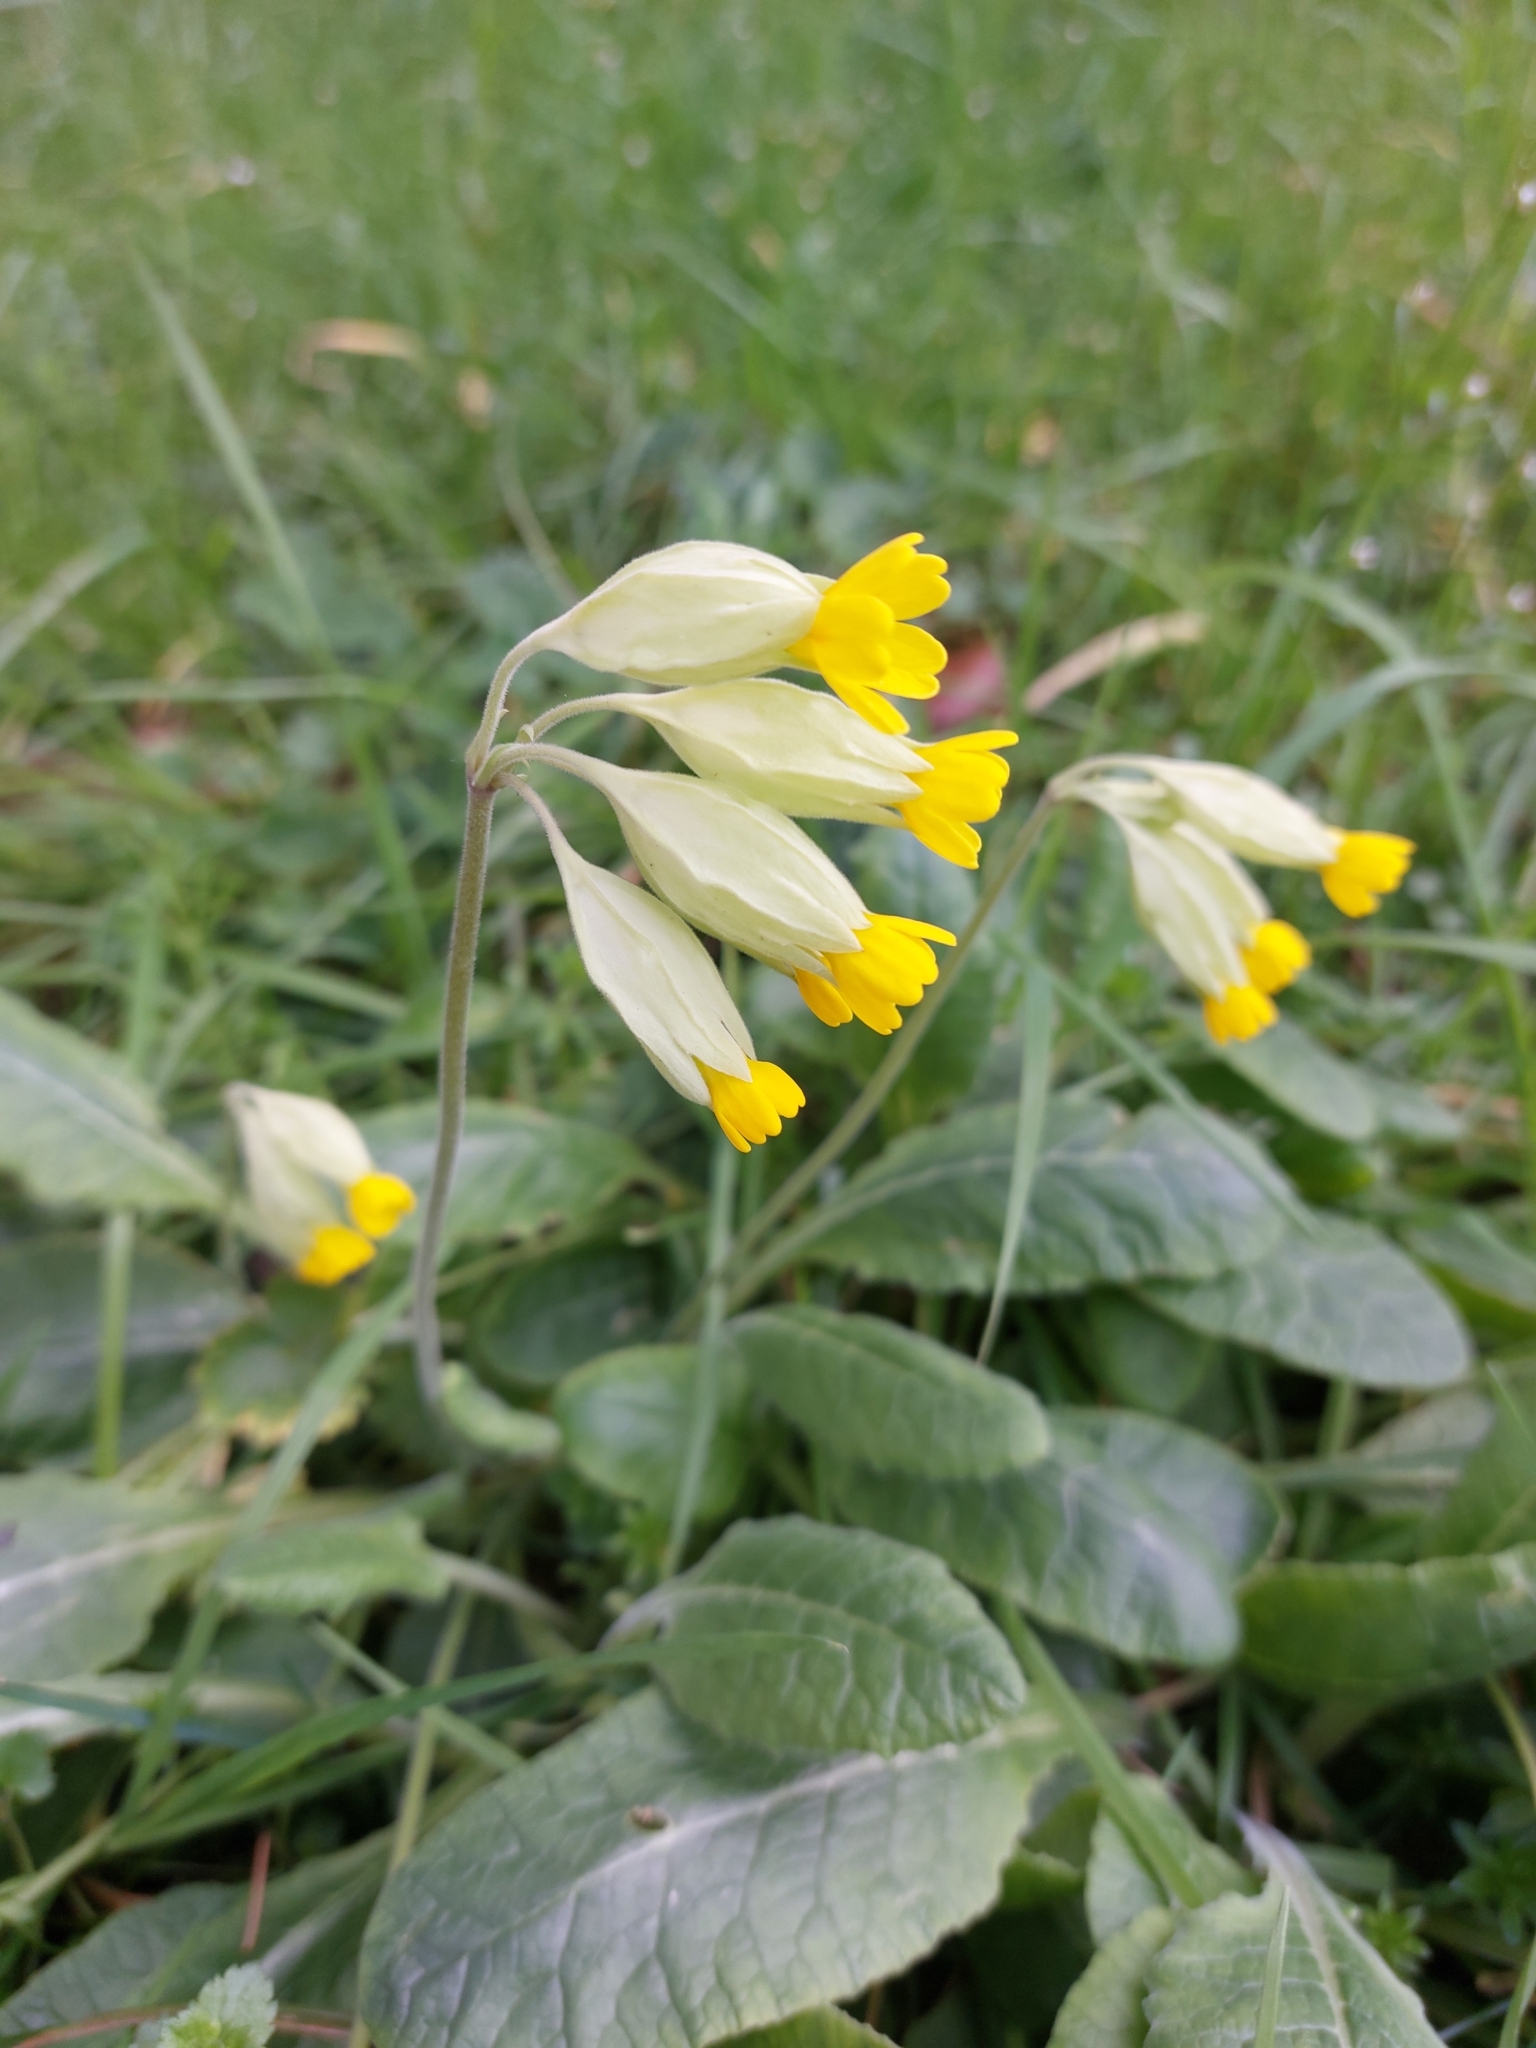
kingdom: Plantae
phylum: Tracheophyta
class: Magnoliopsida
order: Ericales
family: Primulaceae
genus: Primula
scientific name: Primula veris
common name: Cowslip
